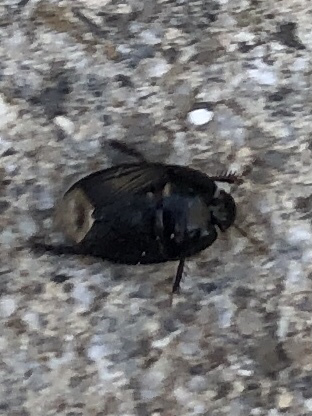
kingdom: Animalia
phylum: Arthropoda
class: Insecta
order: Hemiptera
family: Cydnidae
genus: Macroscytus
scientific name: Macroscytus brunneus
